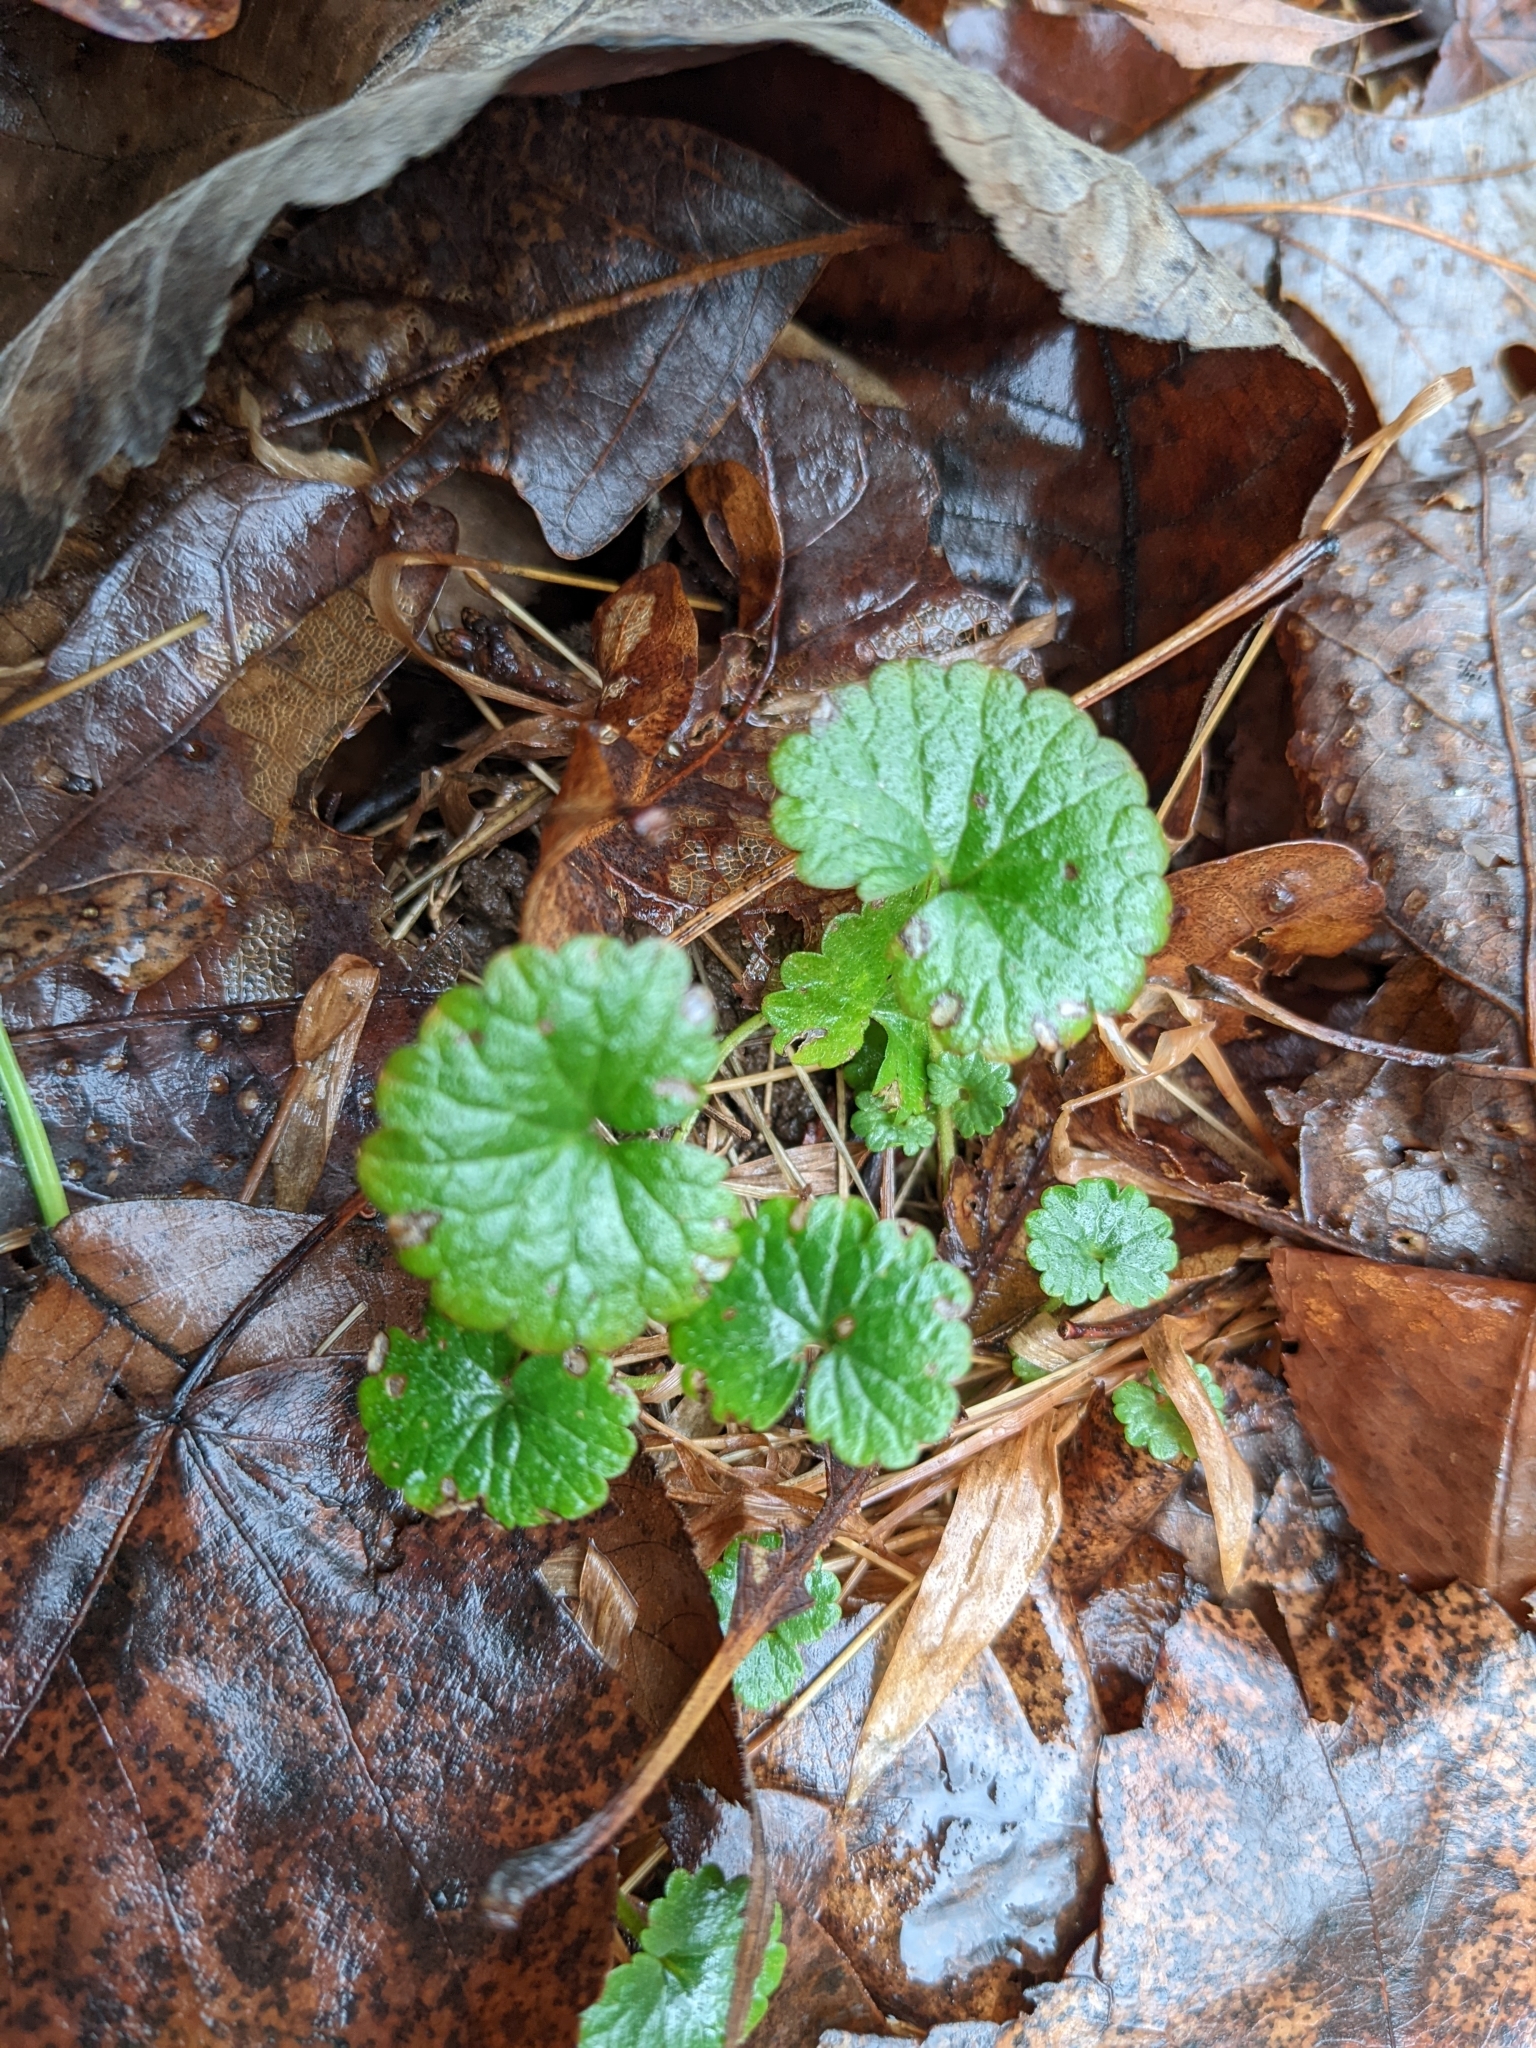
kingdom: Plantae
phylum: Tracheophyta
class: Magnoliopsida
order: Lamiales
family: Lamiaceae
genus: Glechoma
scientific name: Glechoma hederacea
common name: Ground ivy
